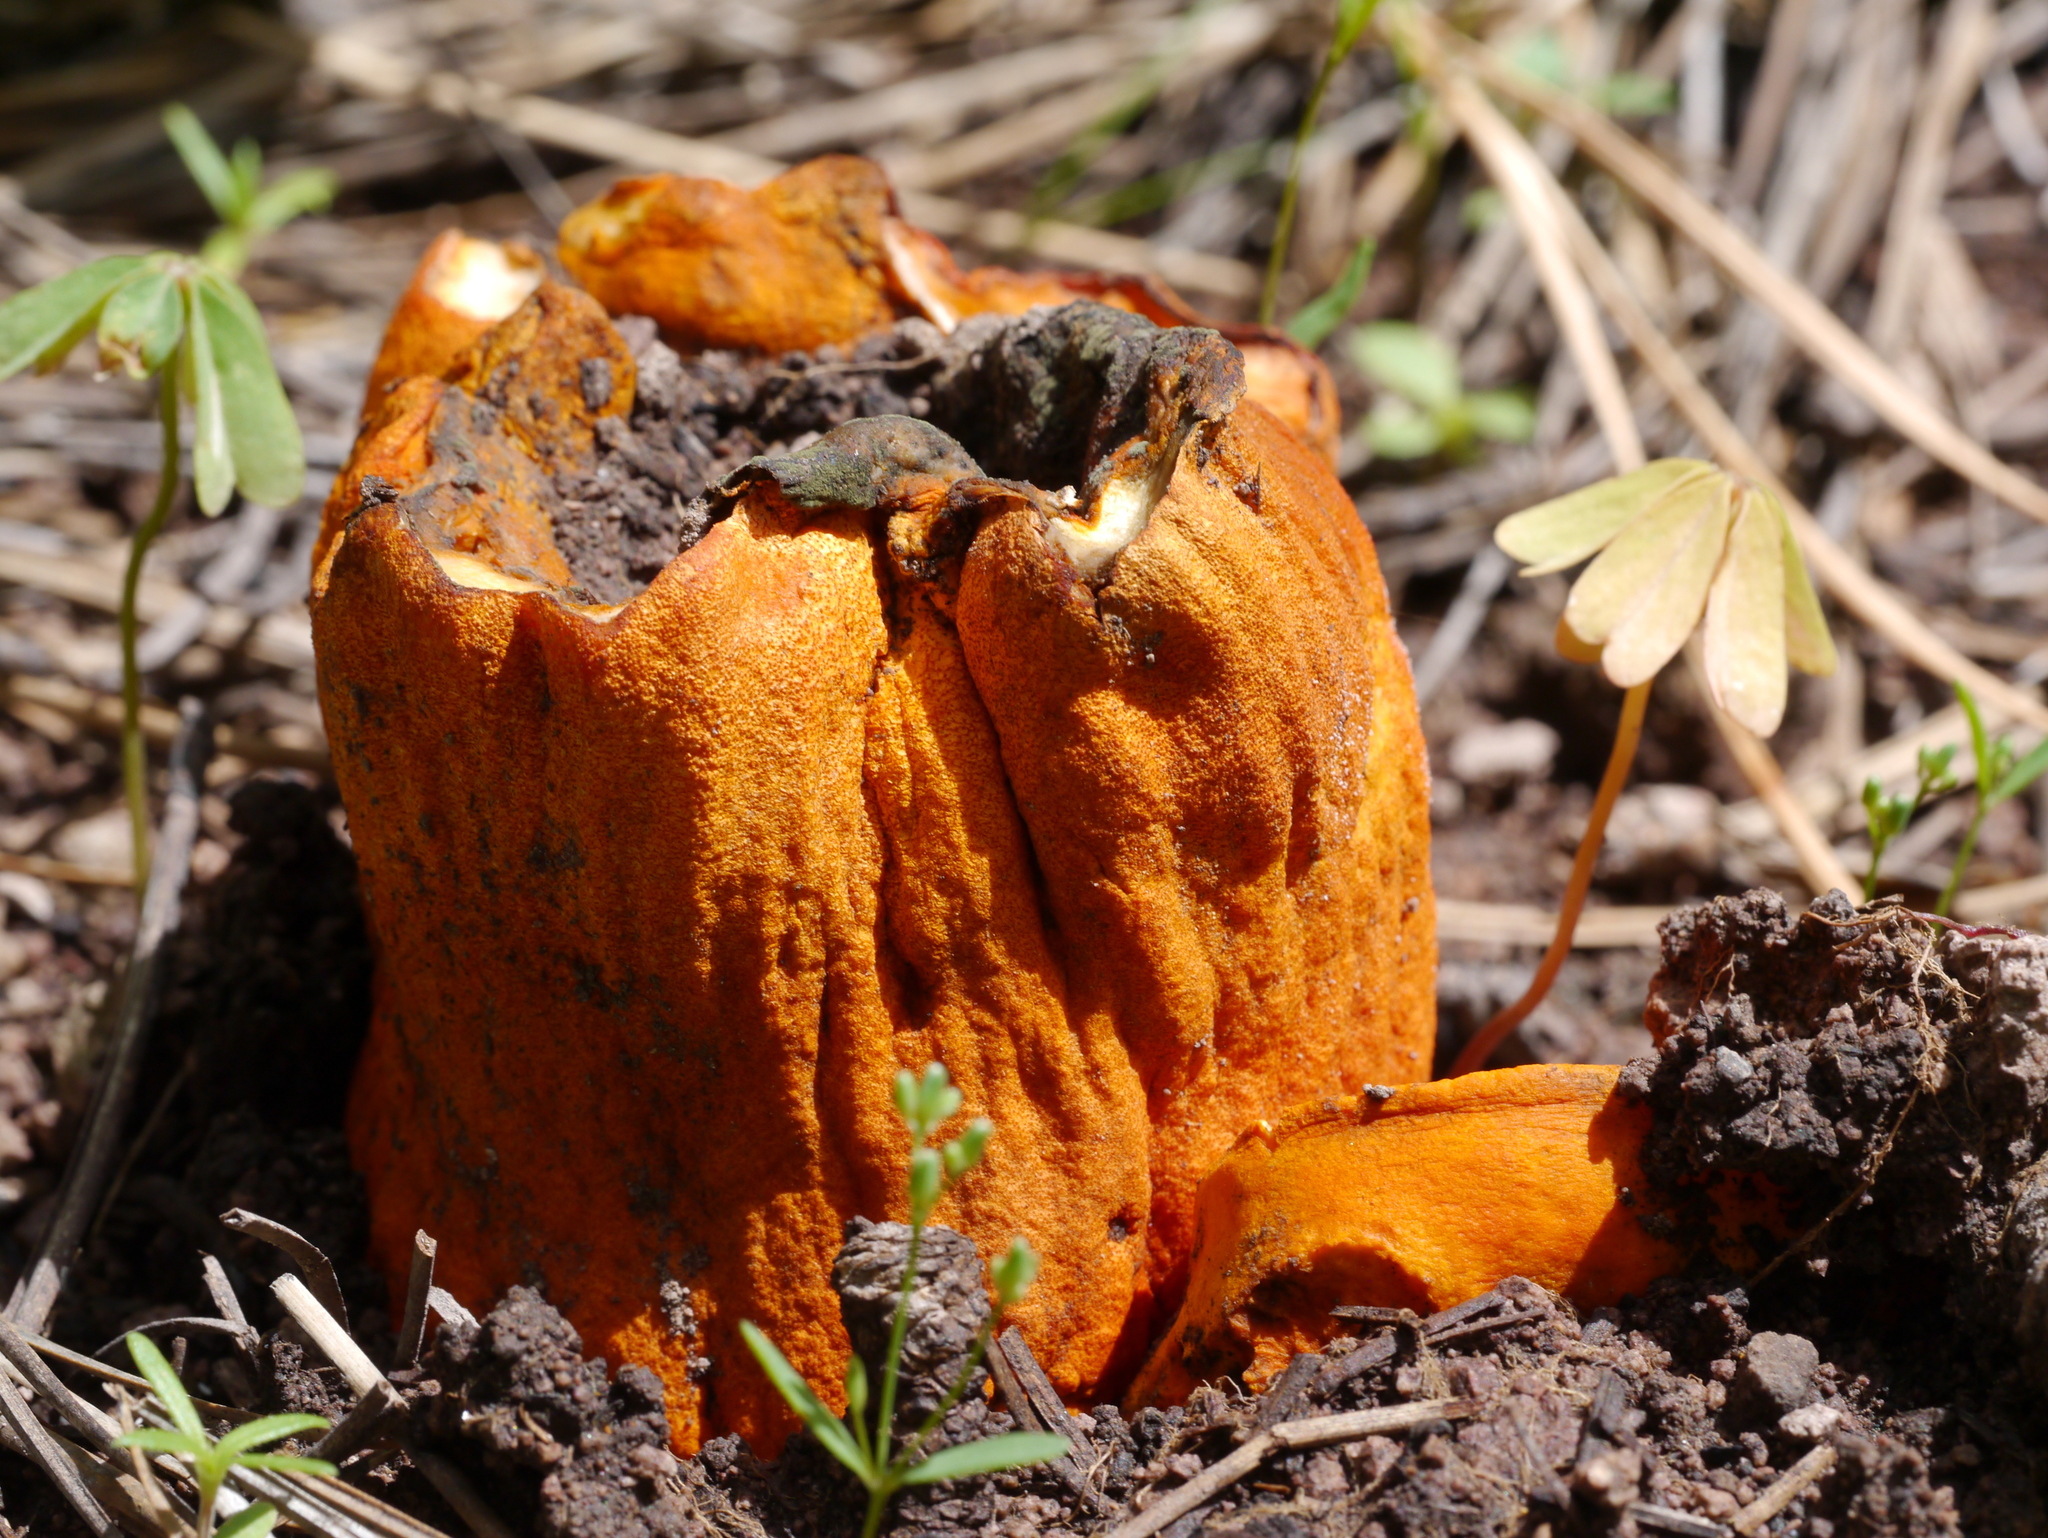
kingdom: Fungi
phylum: Ascomycota
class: Sordariomycetes
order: Hypocreales
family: Hypocreaceae
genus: Hypomyces
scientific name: Hypomyces lactifluorum
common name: Lobster mushroom
